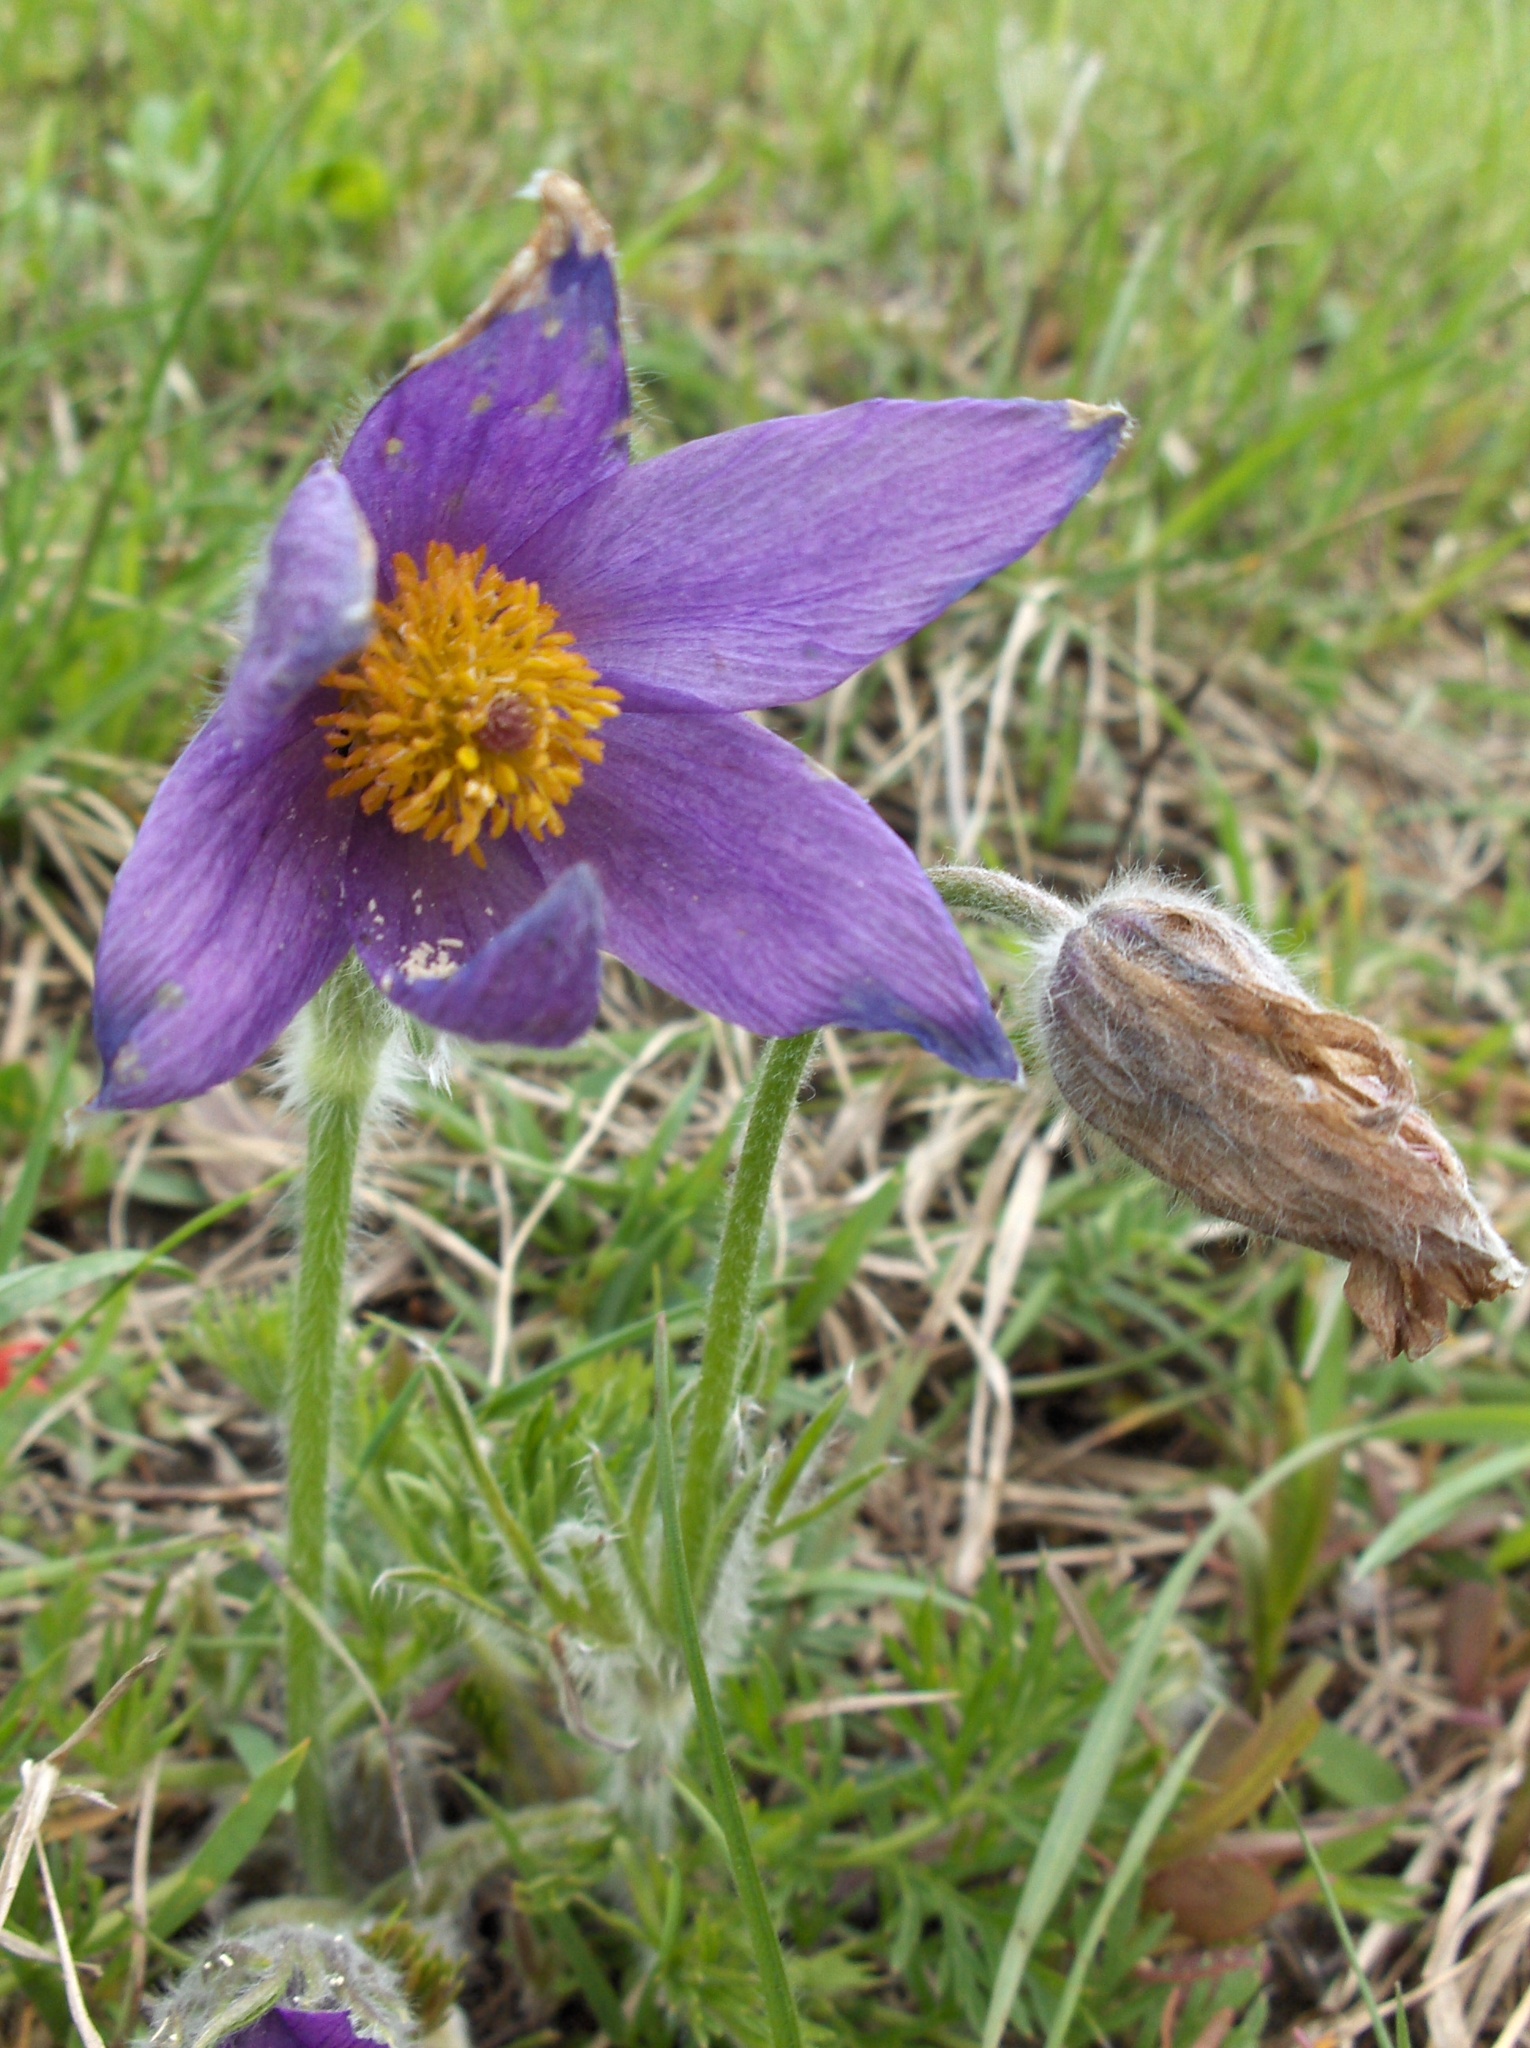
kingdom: Plantae
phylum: Tracheophyta
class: Magnoliopsida
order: Ranunculales
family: Ranunculaceae
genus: Pulsatilla
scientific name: Pulsatilla vulgaris
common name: Pasqueflower
